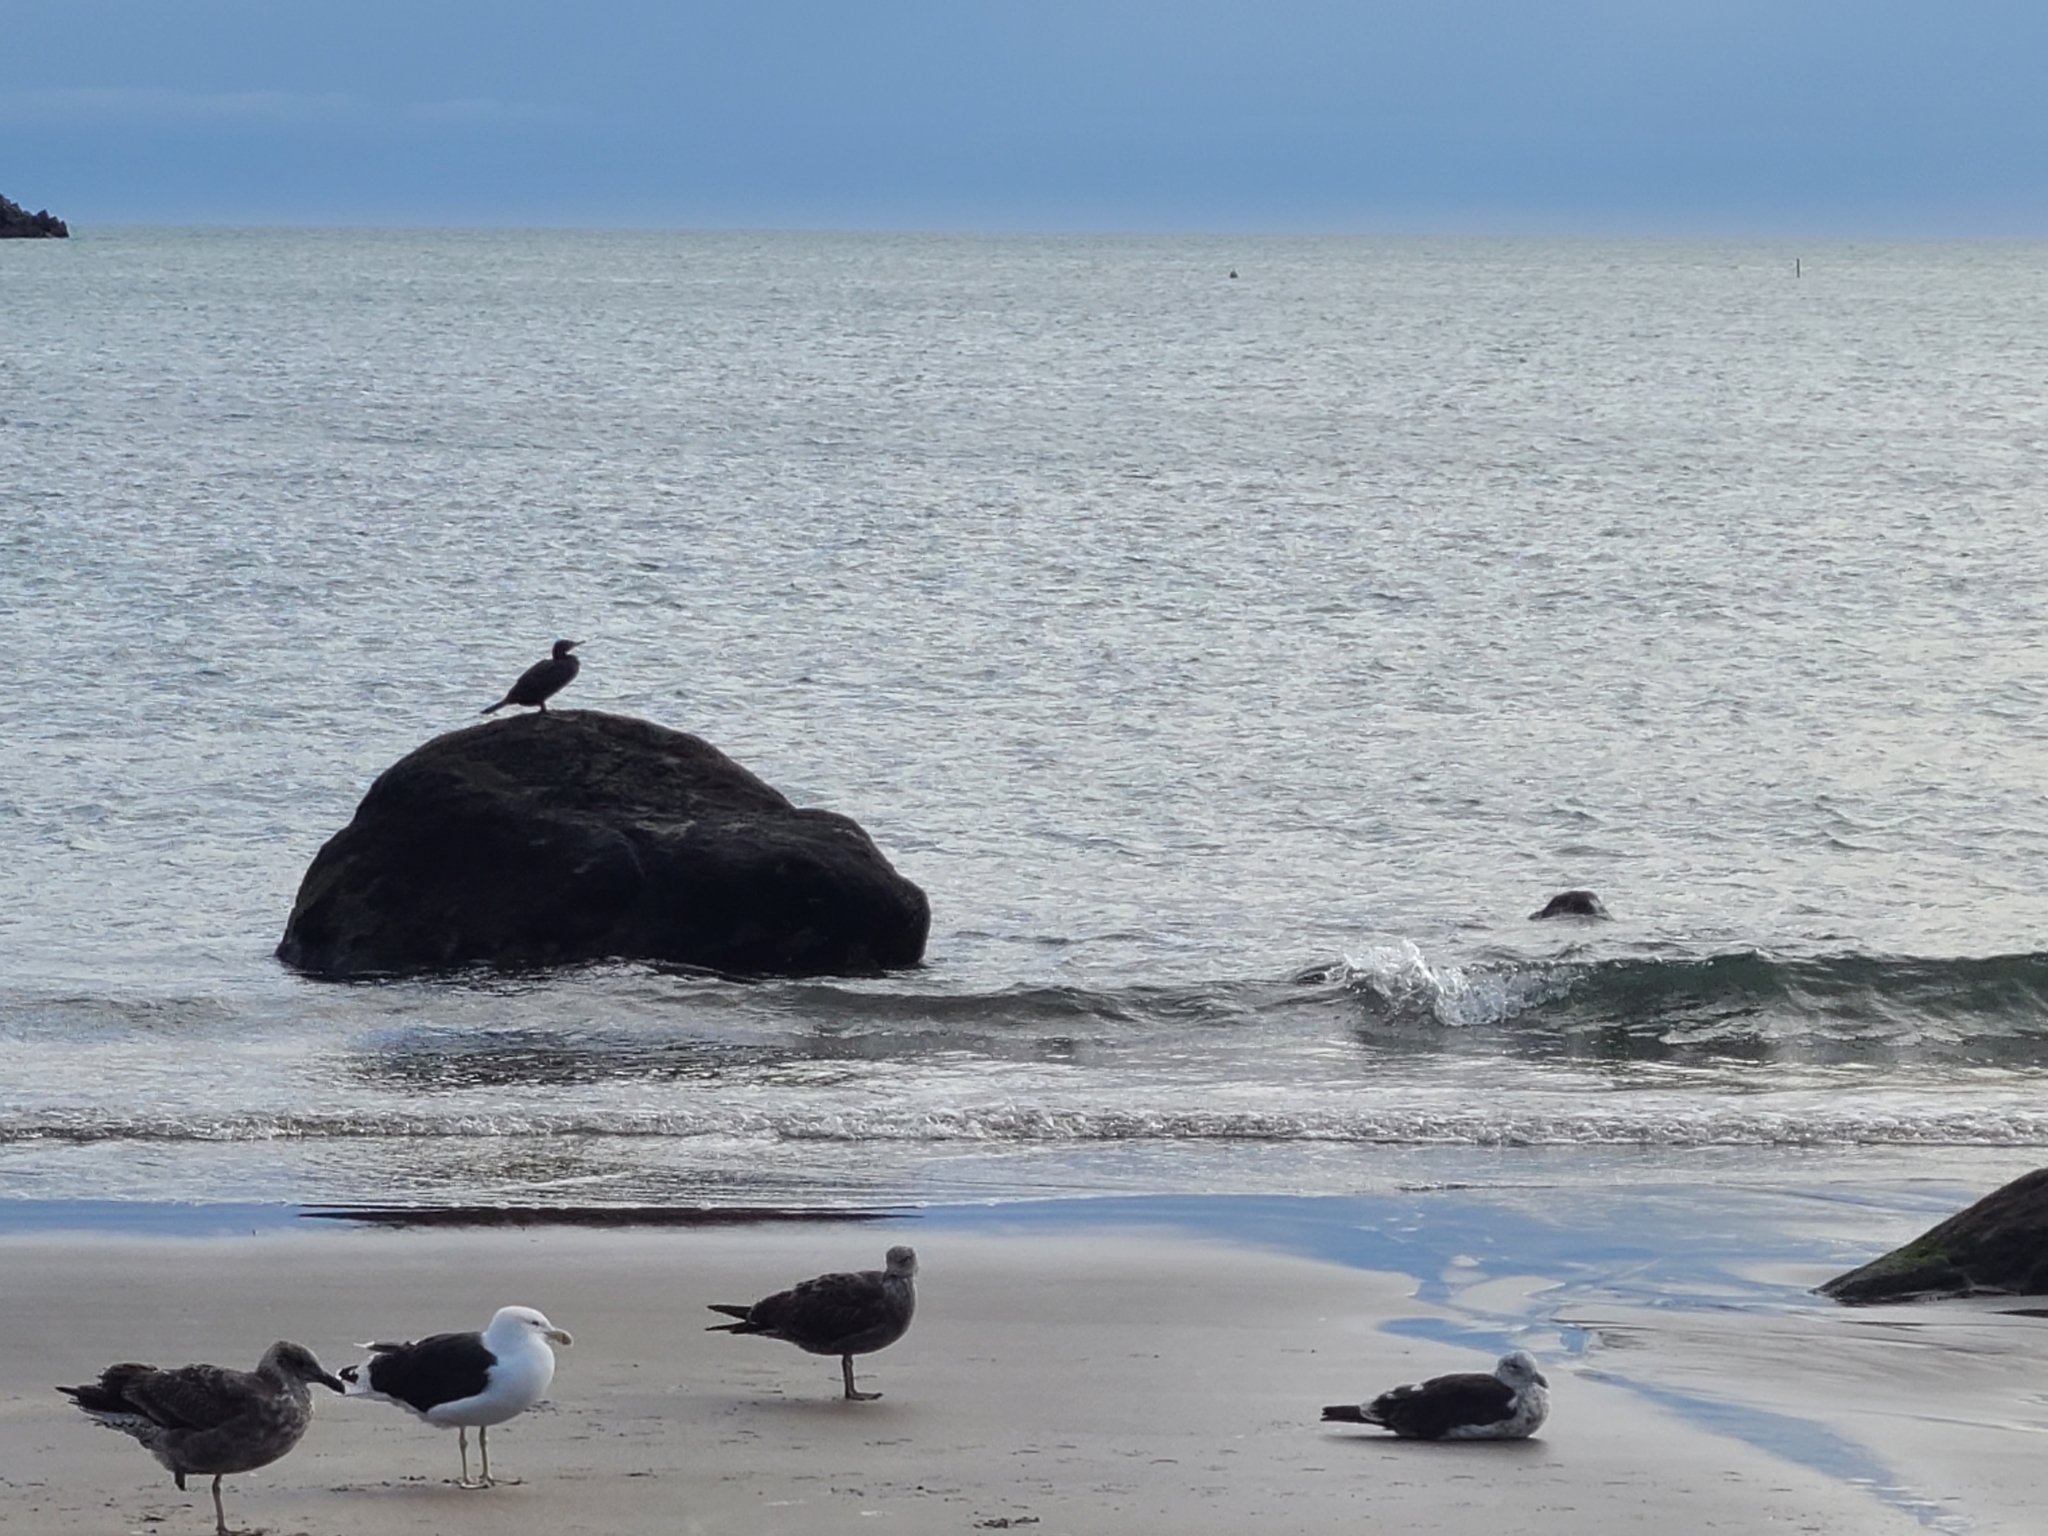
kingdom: Animalia
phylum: Chordata
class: Aves
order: Suliformes
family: Phalacrocoracidae
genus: Phalacrocorax
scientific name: Phalacrocorax sulcirostris
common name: Little black cormorant
